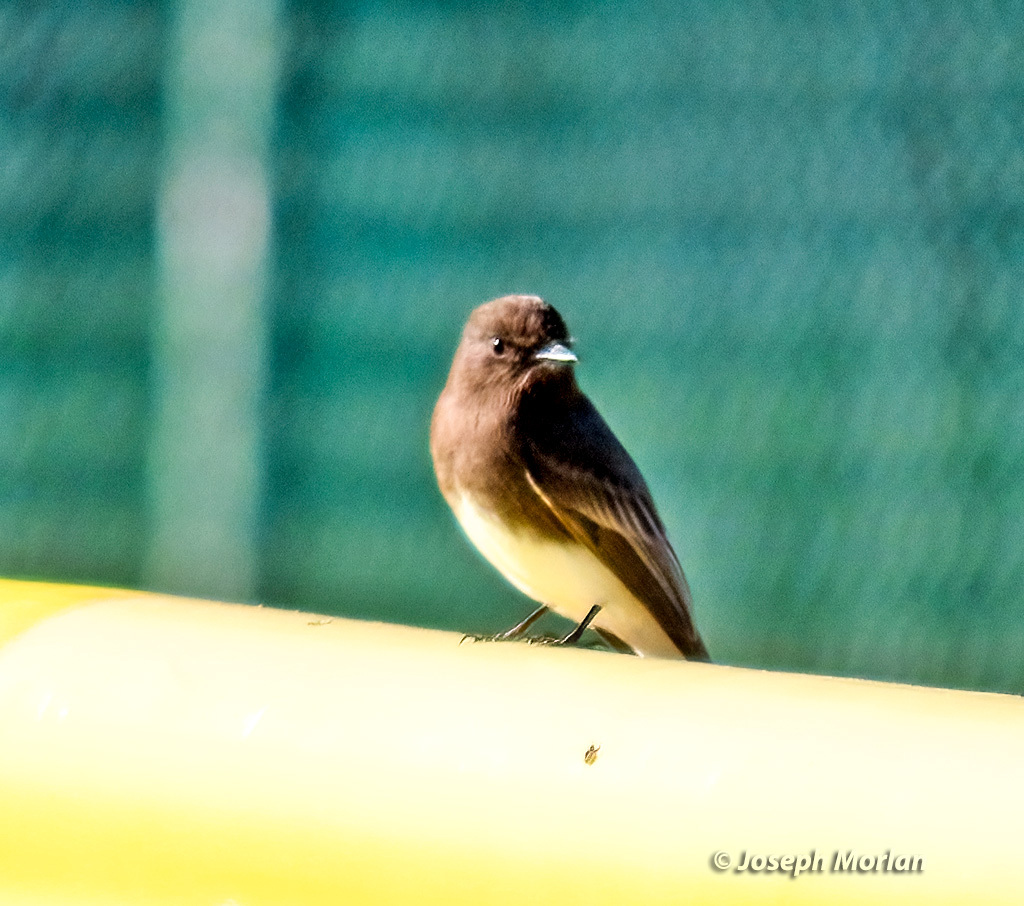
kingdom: Animalia
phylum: Chordata
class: Aves
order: Passeriformes
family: Tyrannidae
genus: Sayornis
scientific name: Sayornis nigricans
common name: Black phoebe
